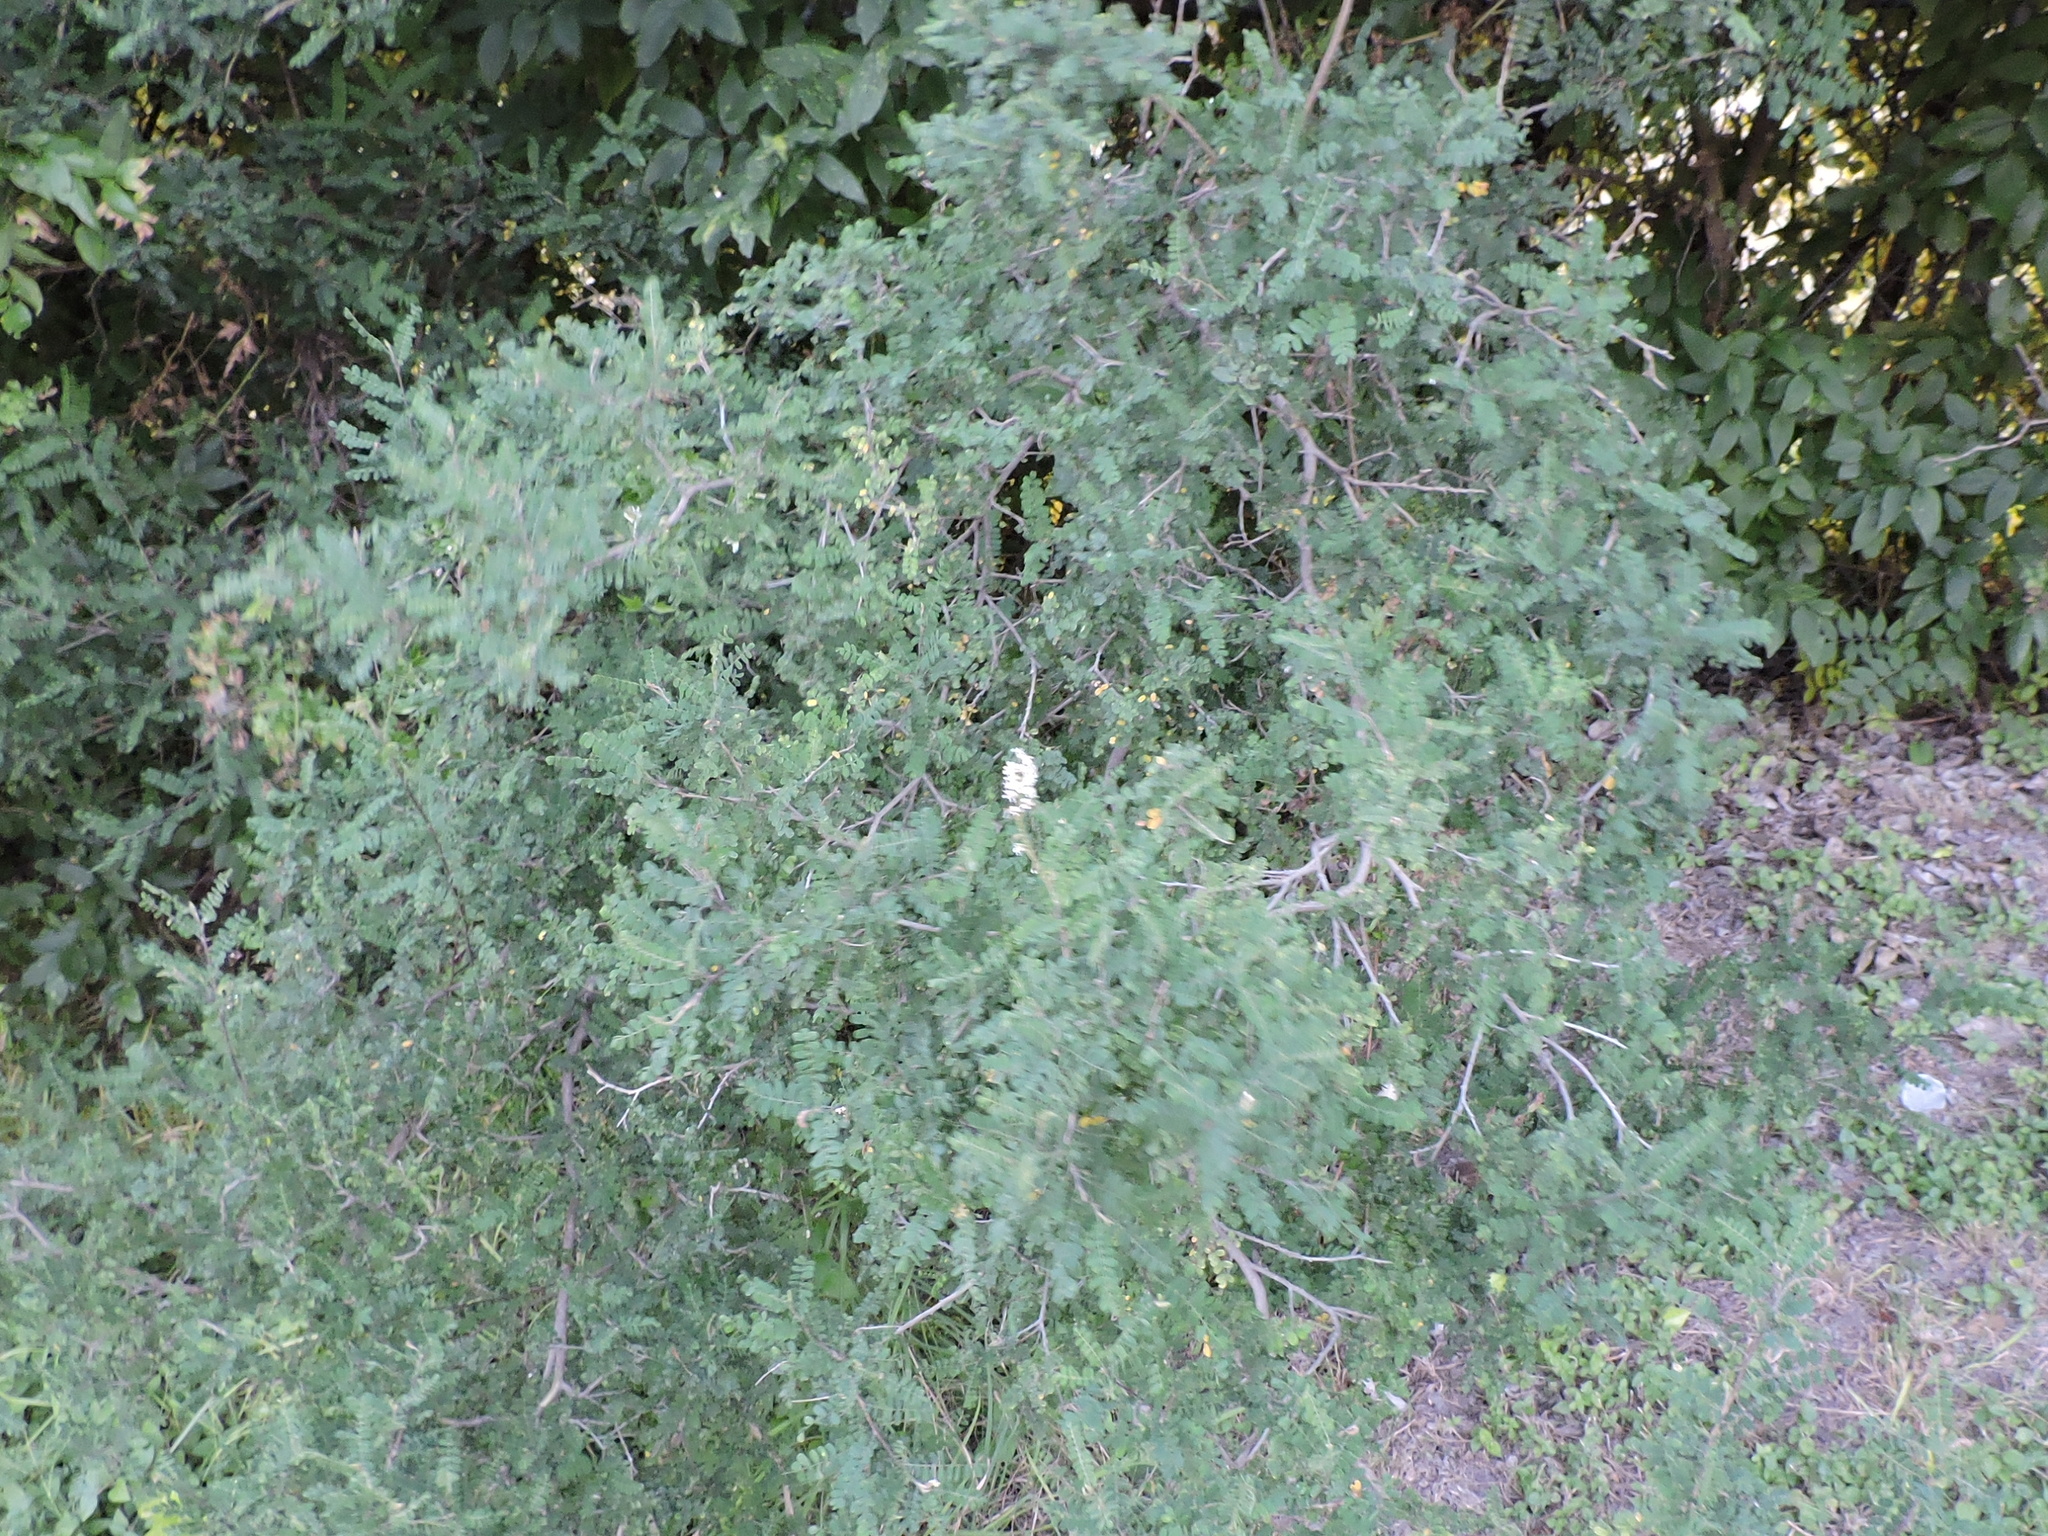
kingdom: Plantae
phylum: Tracheophyta
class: Magnoliopsida
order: Fabales
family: Fabaceae
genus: Eysenhardtia
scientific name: Eysenhardtia texana
